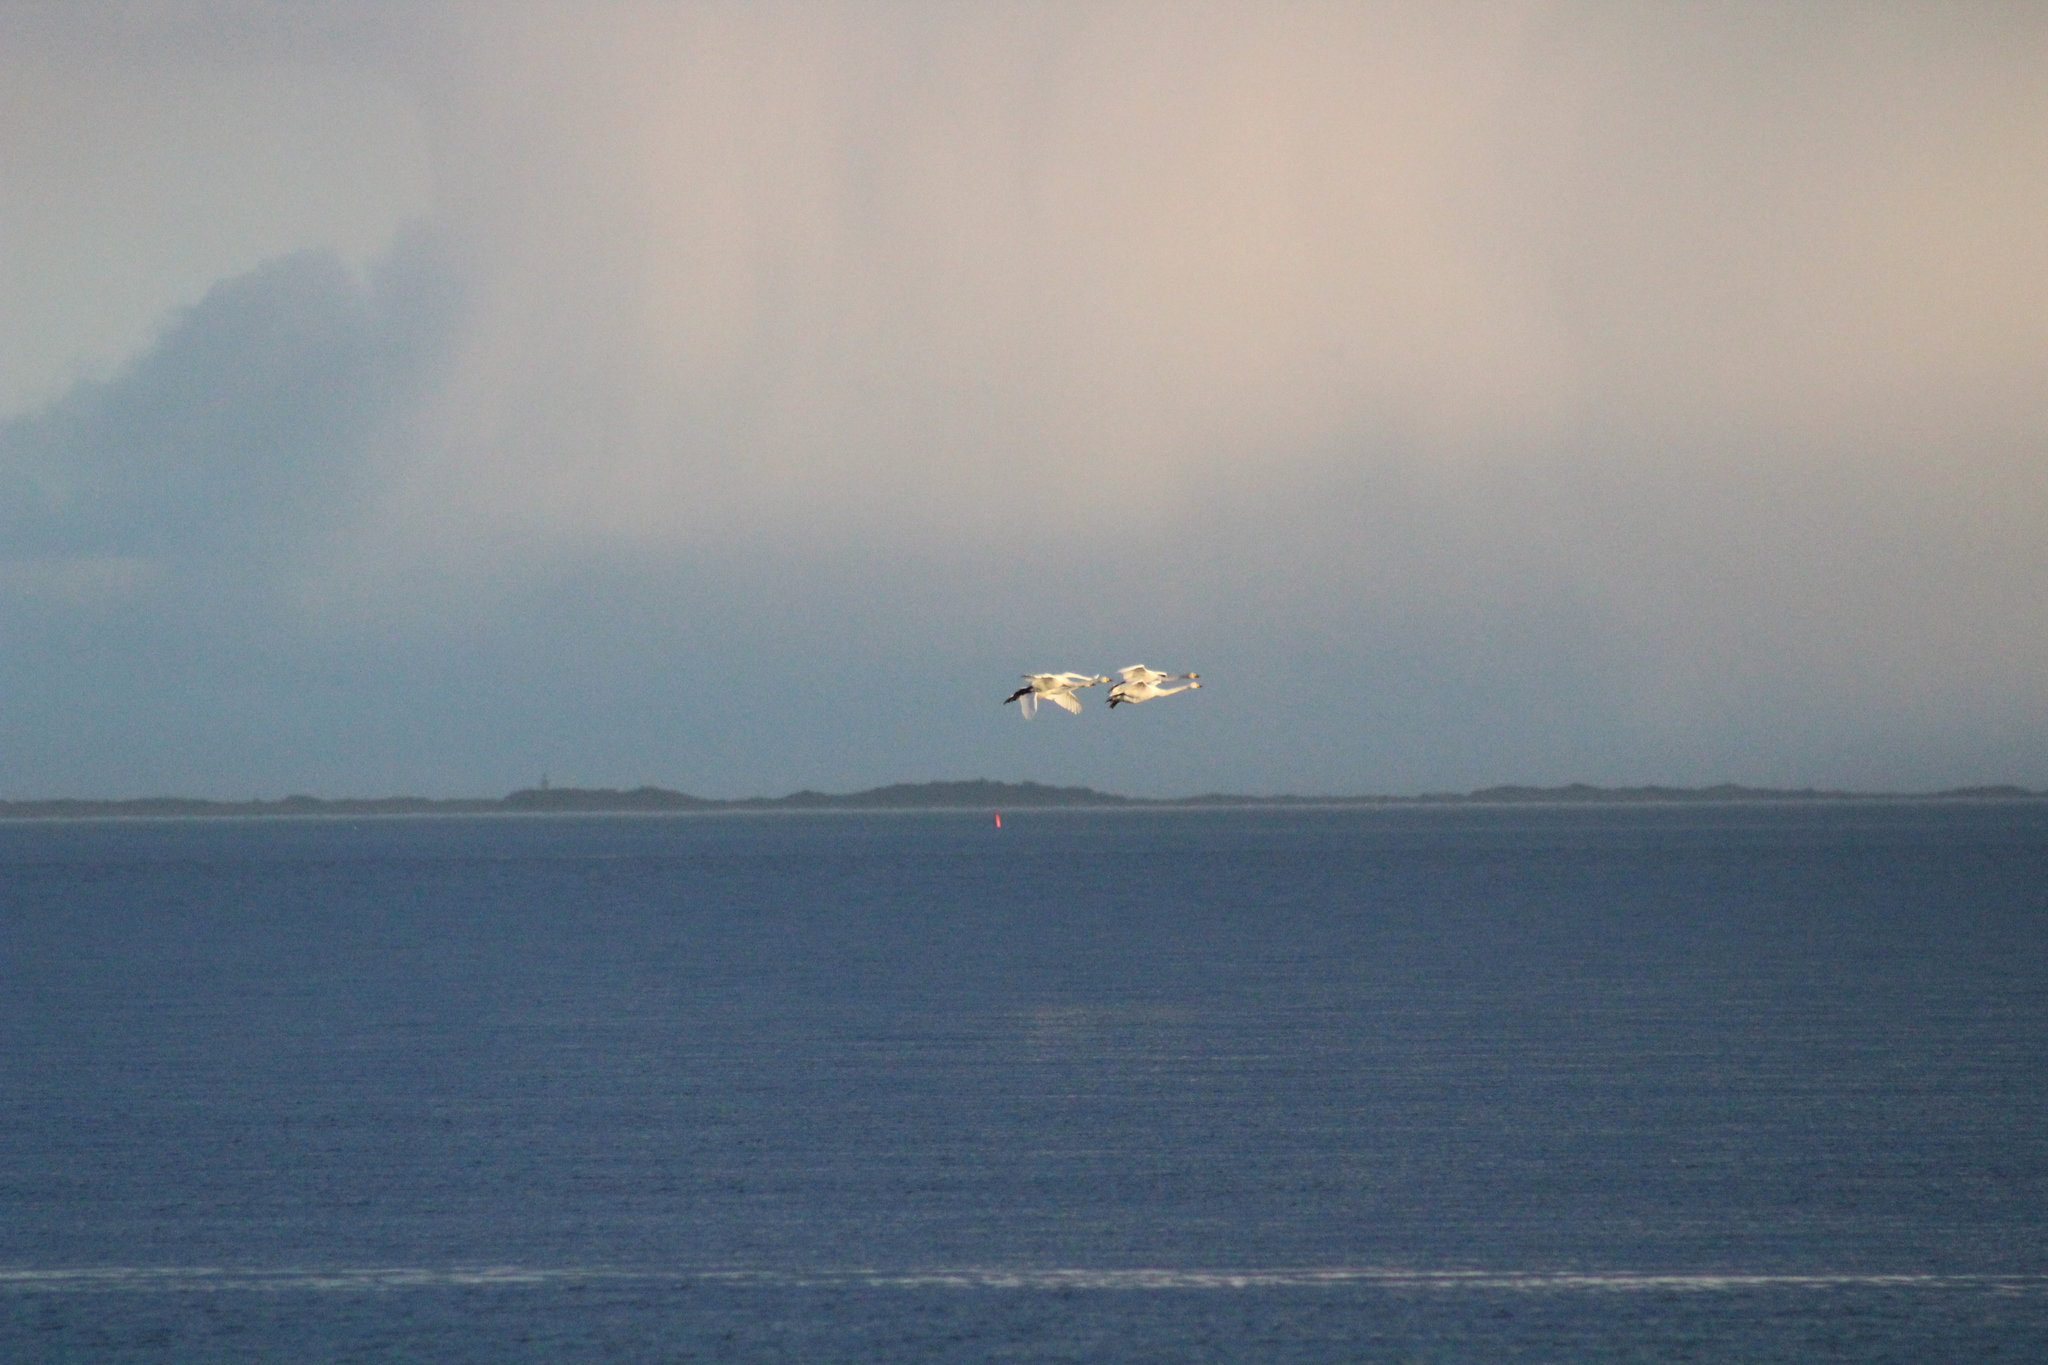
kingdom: Animalia
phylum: Chordata
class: Aves
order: Anseriformes
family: Anatidae
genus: Cygnus
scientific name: Cygnus cygnus
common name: Whooper swan
